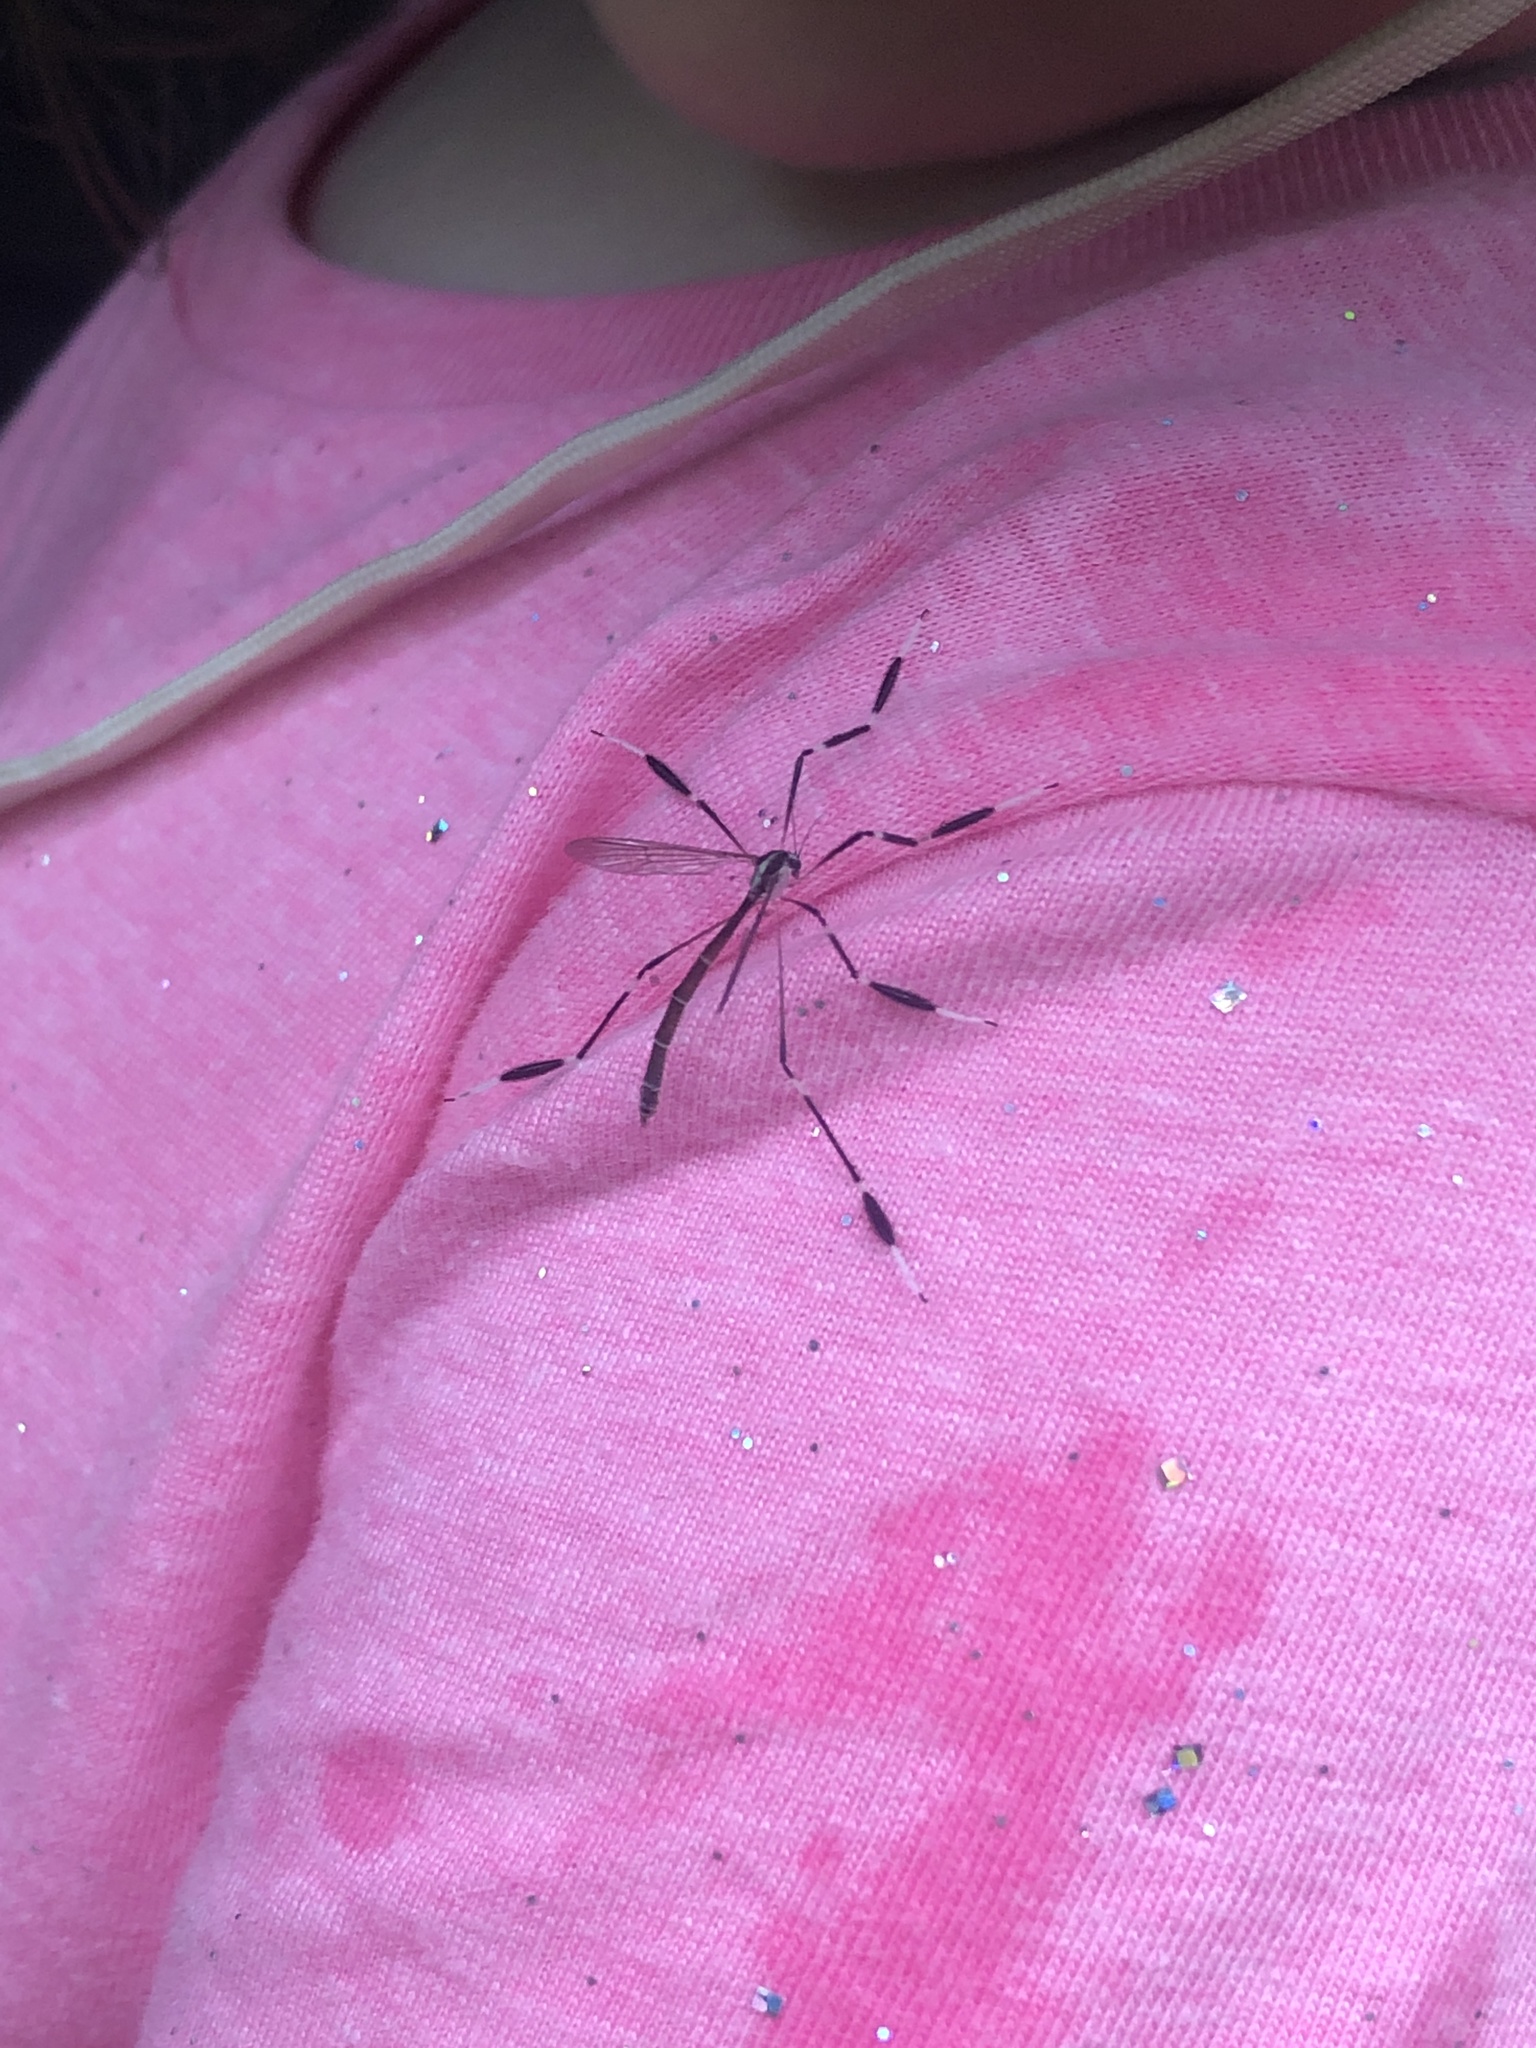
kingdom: Animalia
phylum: Arthropoda
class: Insecta
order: Diptera
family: Ptychopteridae
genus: Bittacomorpha
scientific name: Bittacomorpha clavipes
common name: Eastern phantom crane fly
